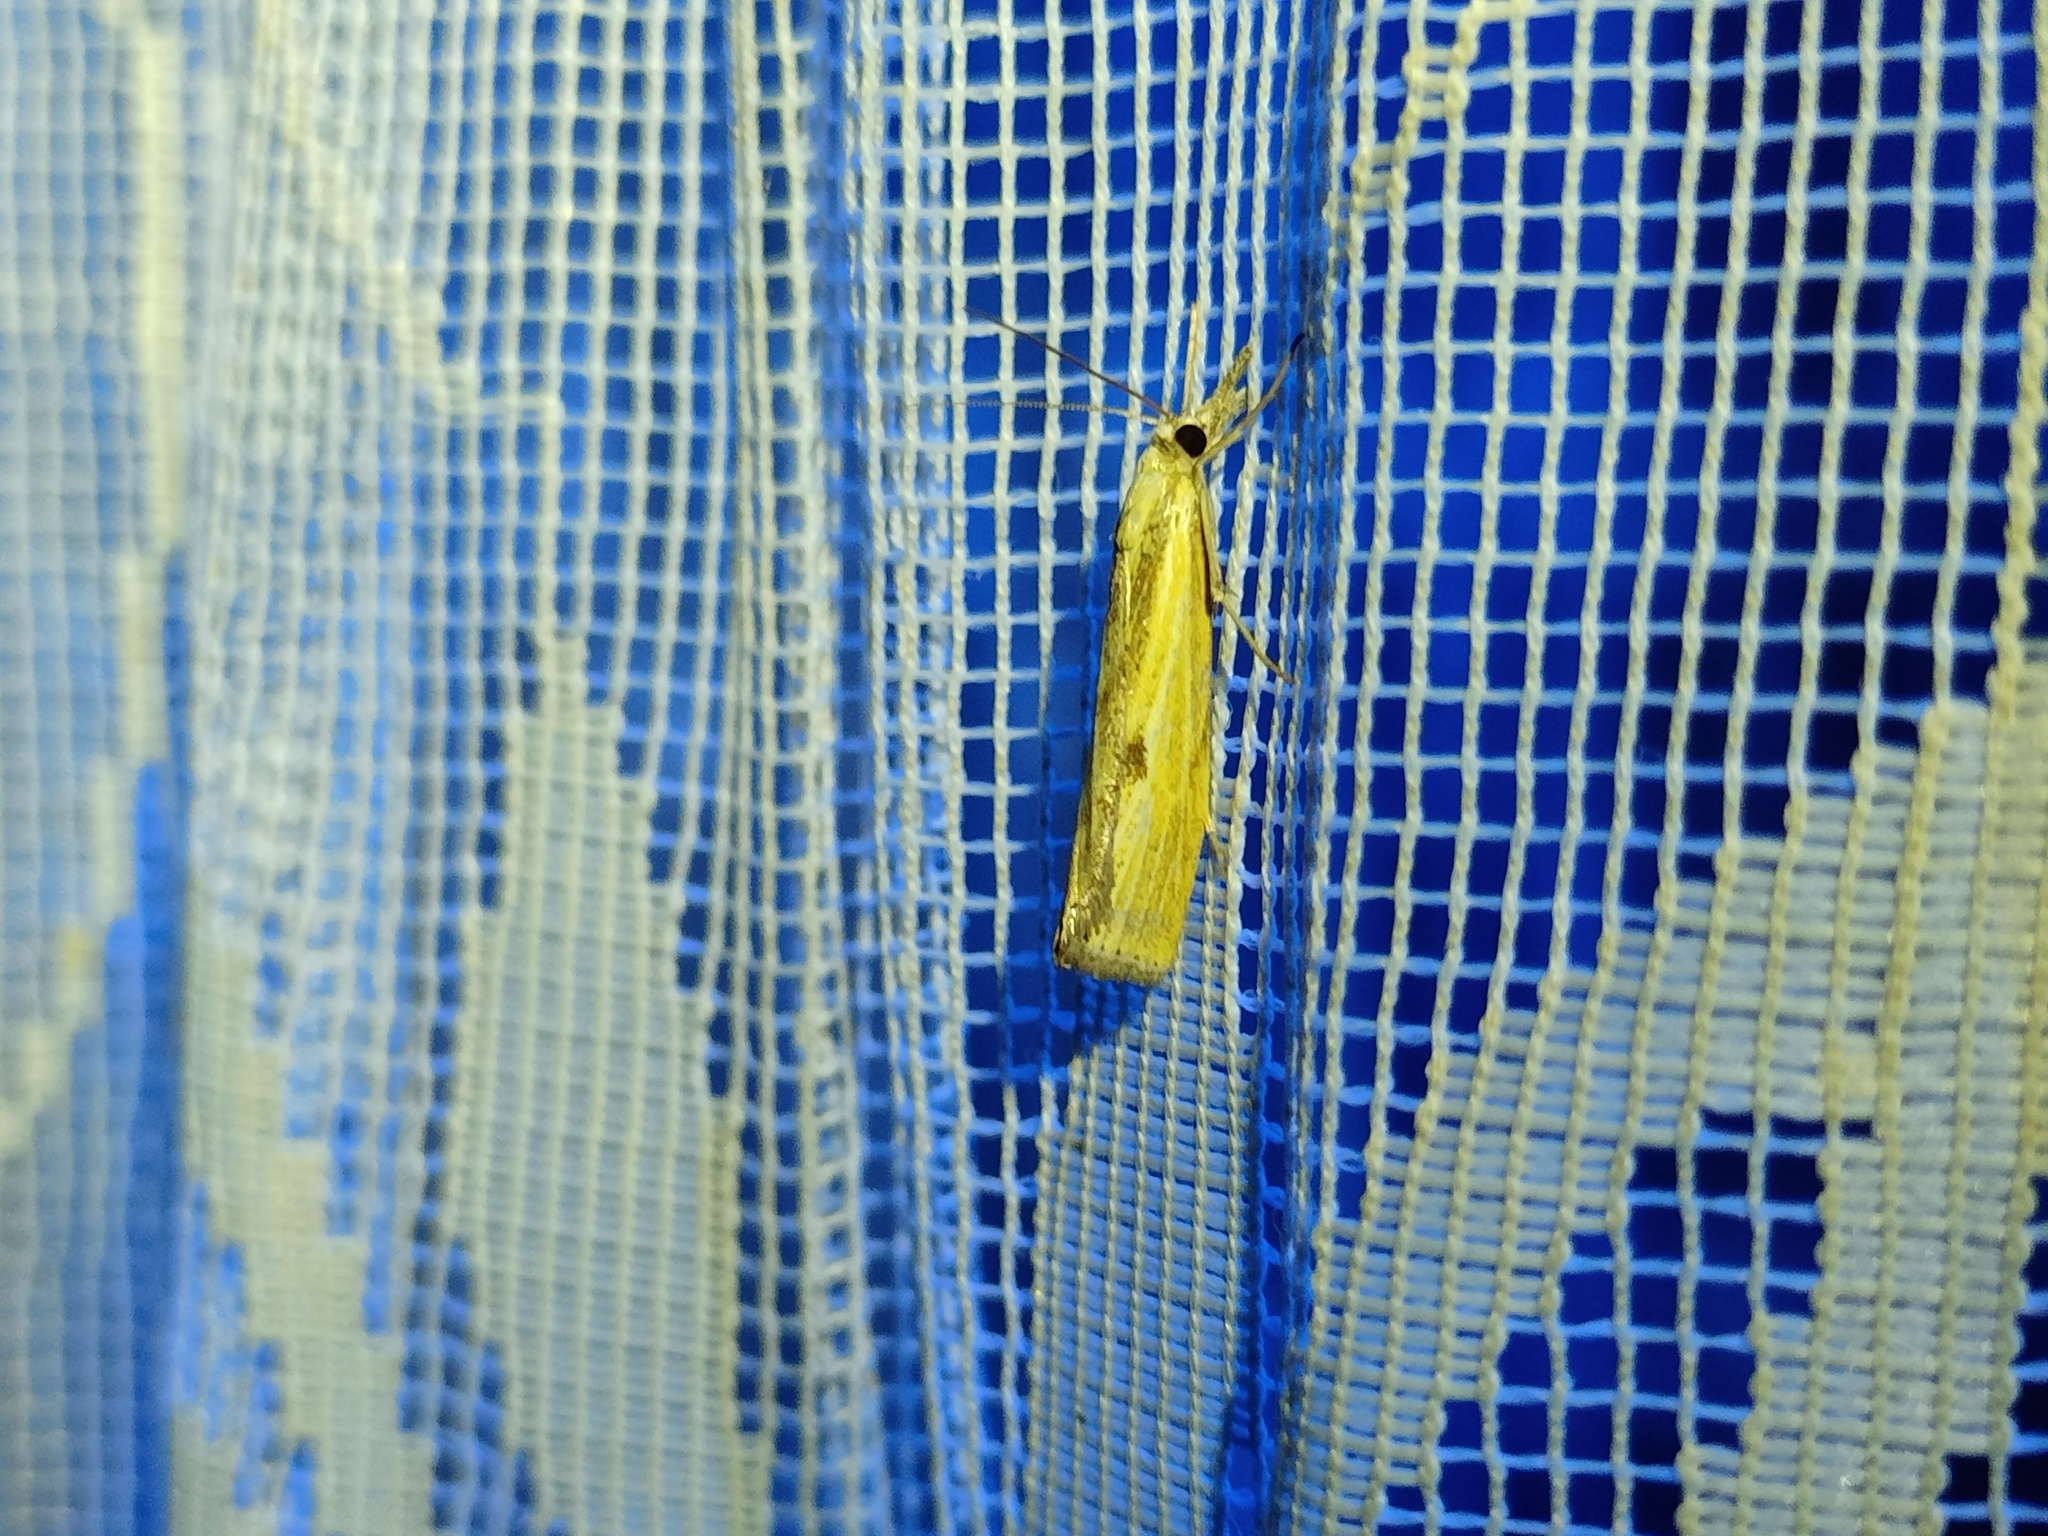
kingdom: Animalia
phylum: Arthropoda
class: Insecta
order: Lepidoptera
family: Crambidae
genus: Agriphila
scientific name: Agriphila inquinatella
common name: Barred grass-veneer
